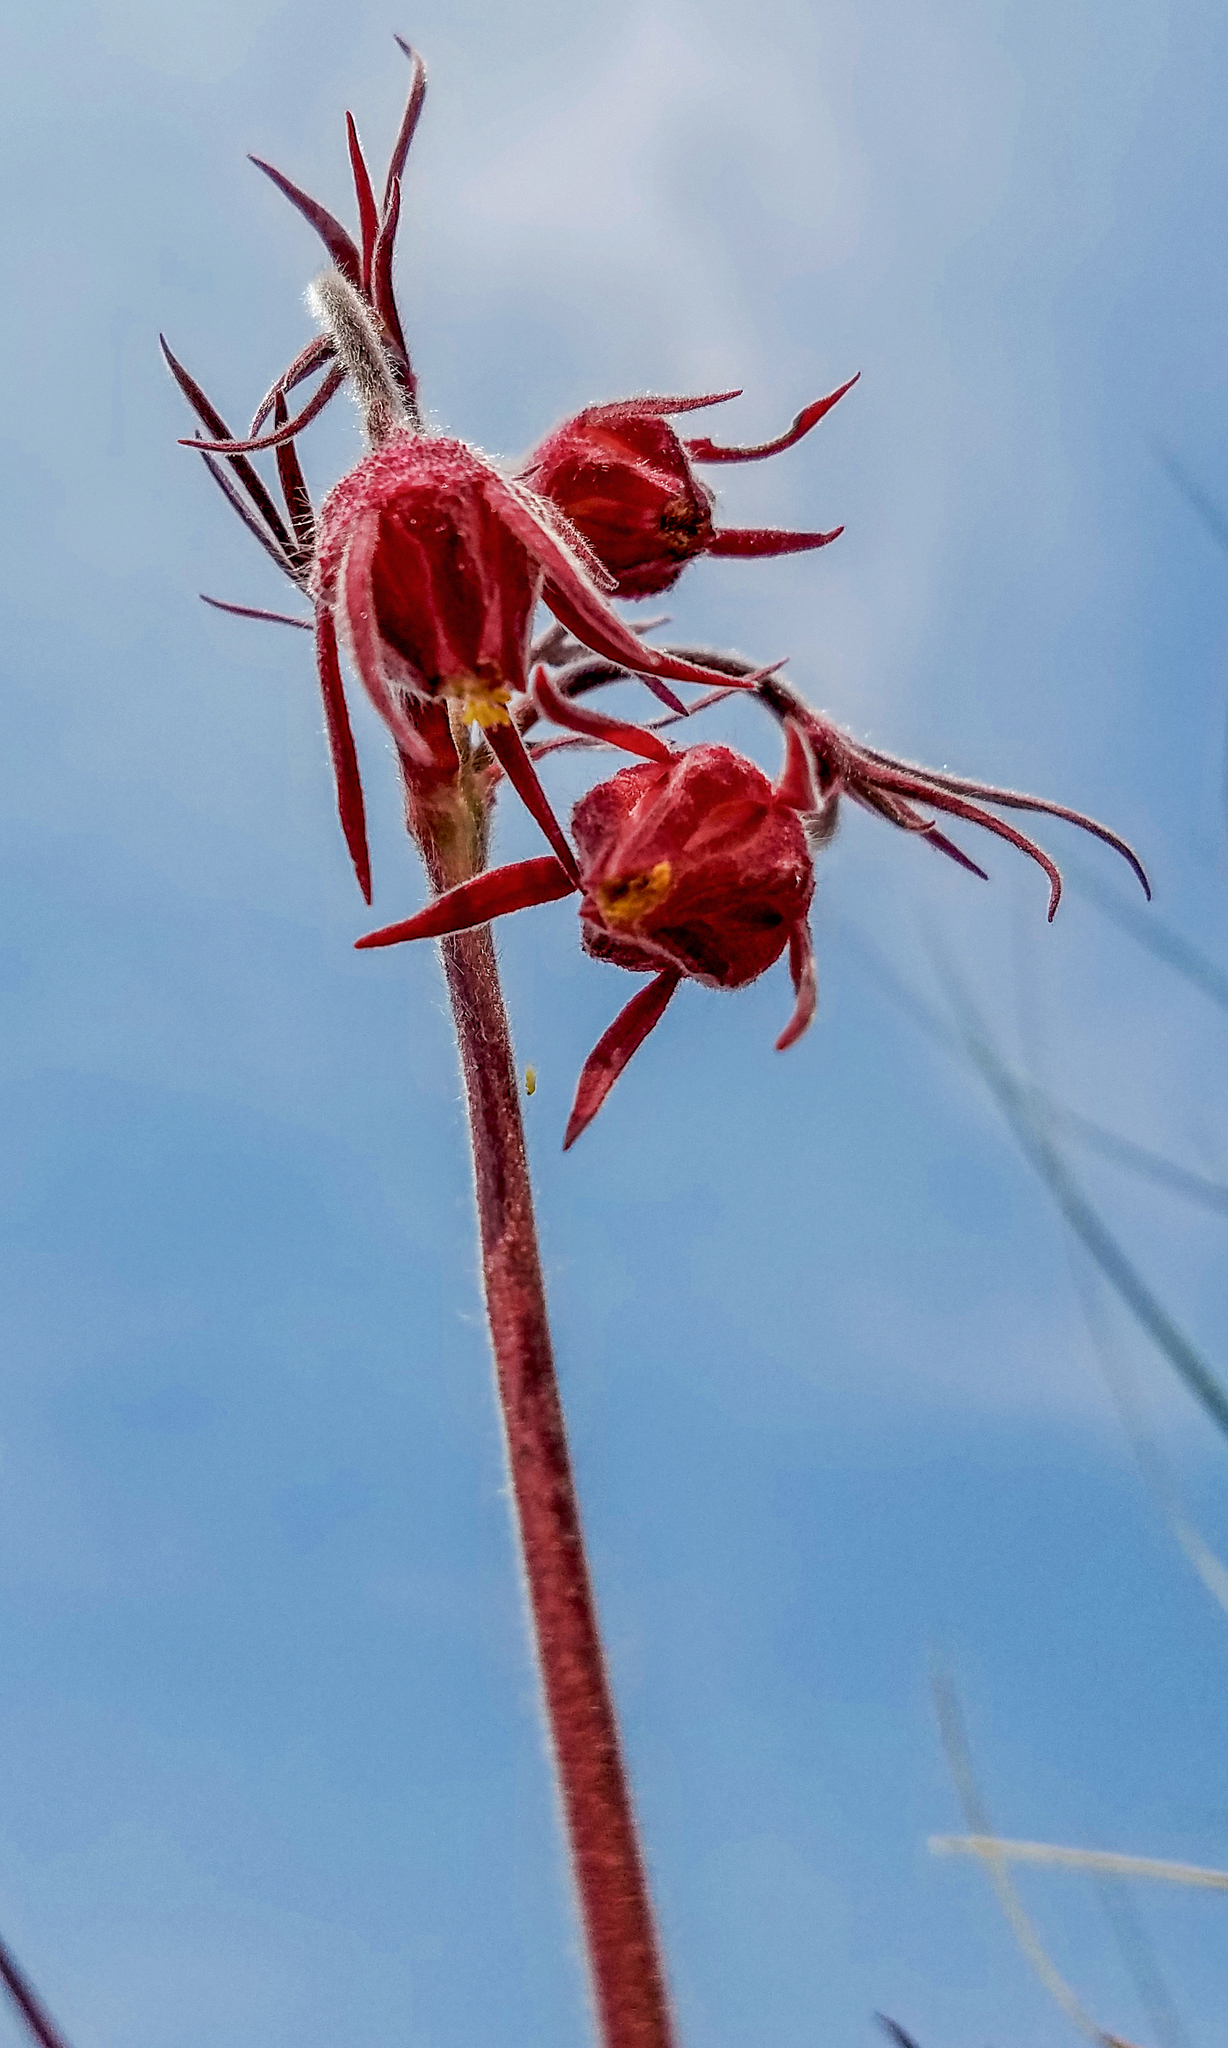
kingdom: Plantae
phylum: Tracheophyta
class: Magnoliopsida
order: Rosales
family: Rosaceae
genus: Geum
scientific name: Geum triflorum
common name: Old man's whiskers
